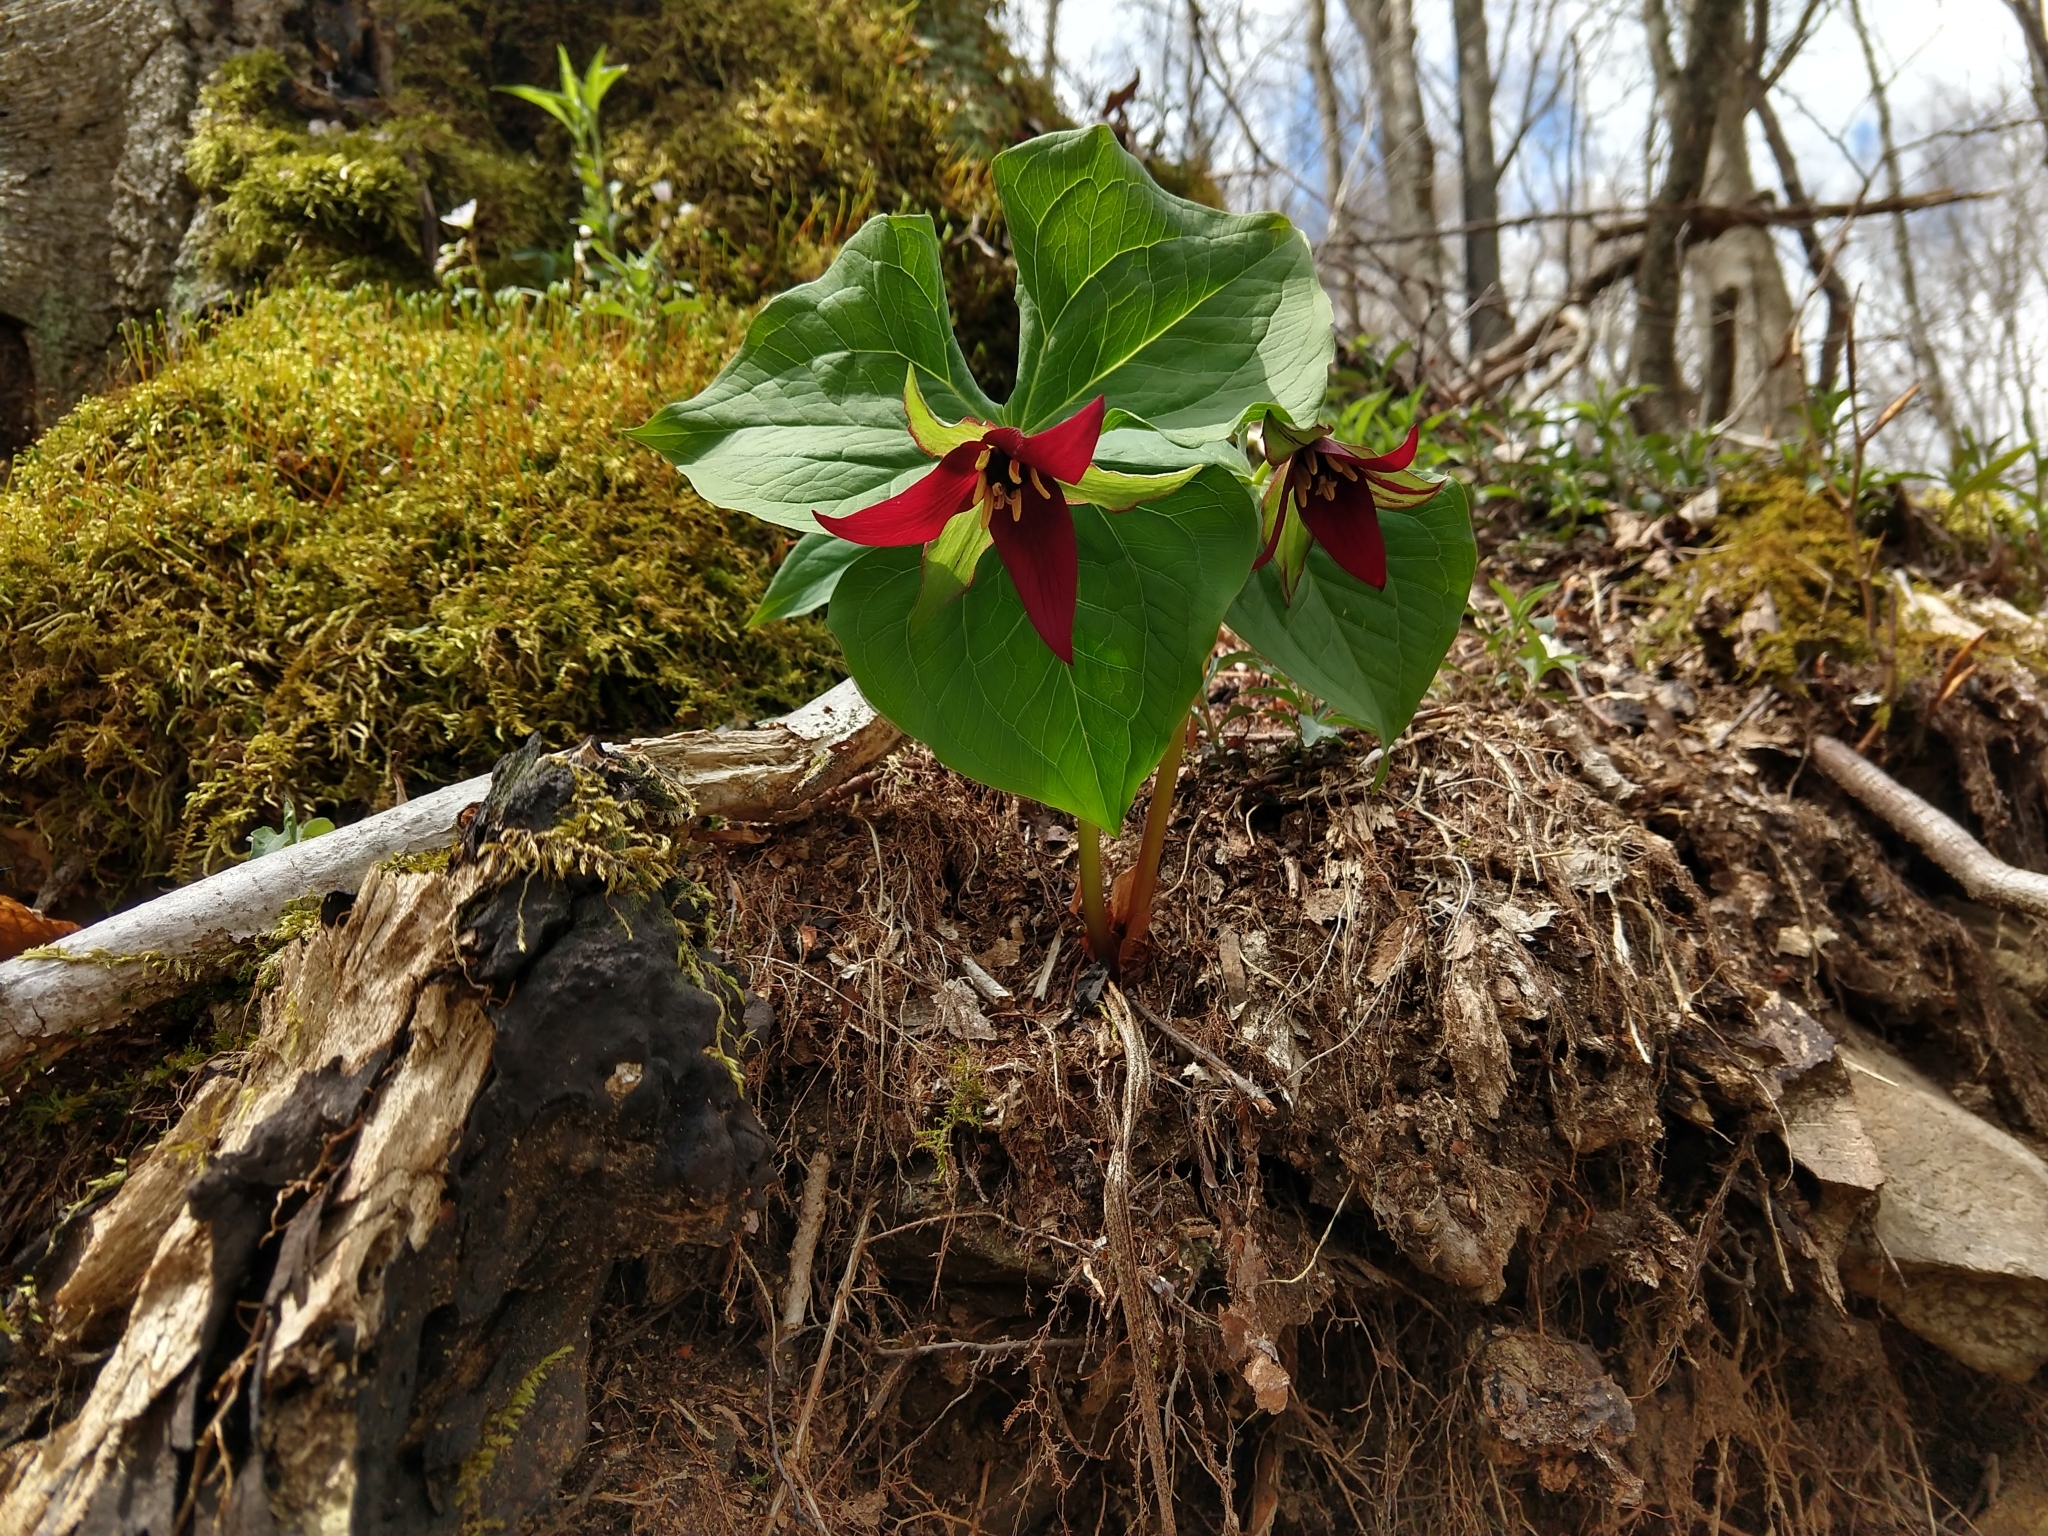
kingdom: Plantae
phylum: Tracheophyta
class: Liliopsida
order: Liliales
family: Melanthiaceae
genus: Trillium
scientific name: Trillium erectum
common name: Purple trillium
